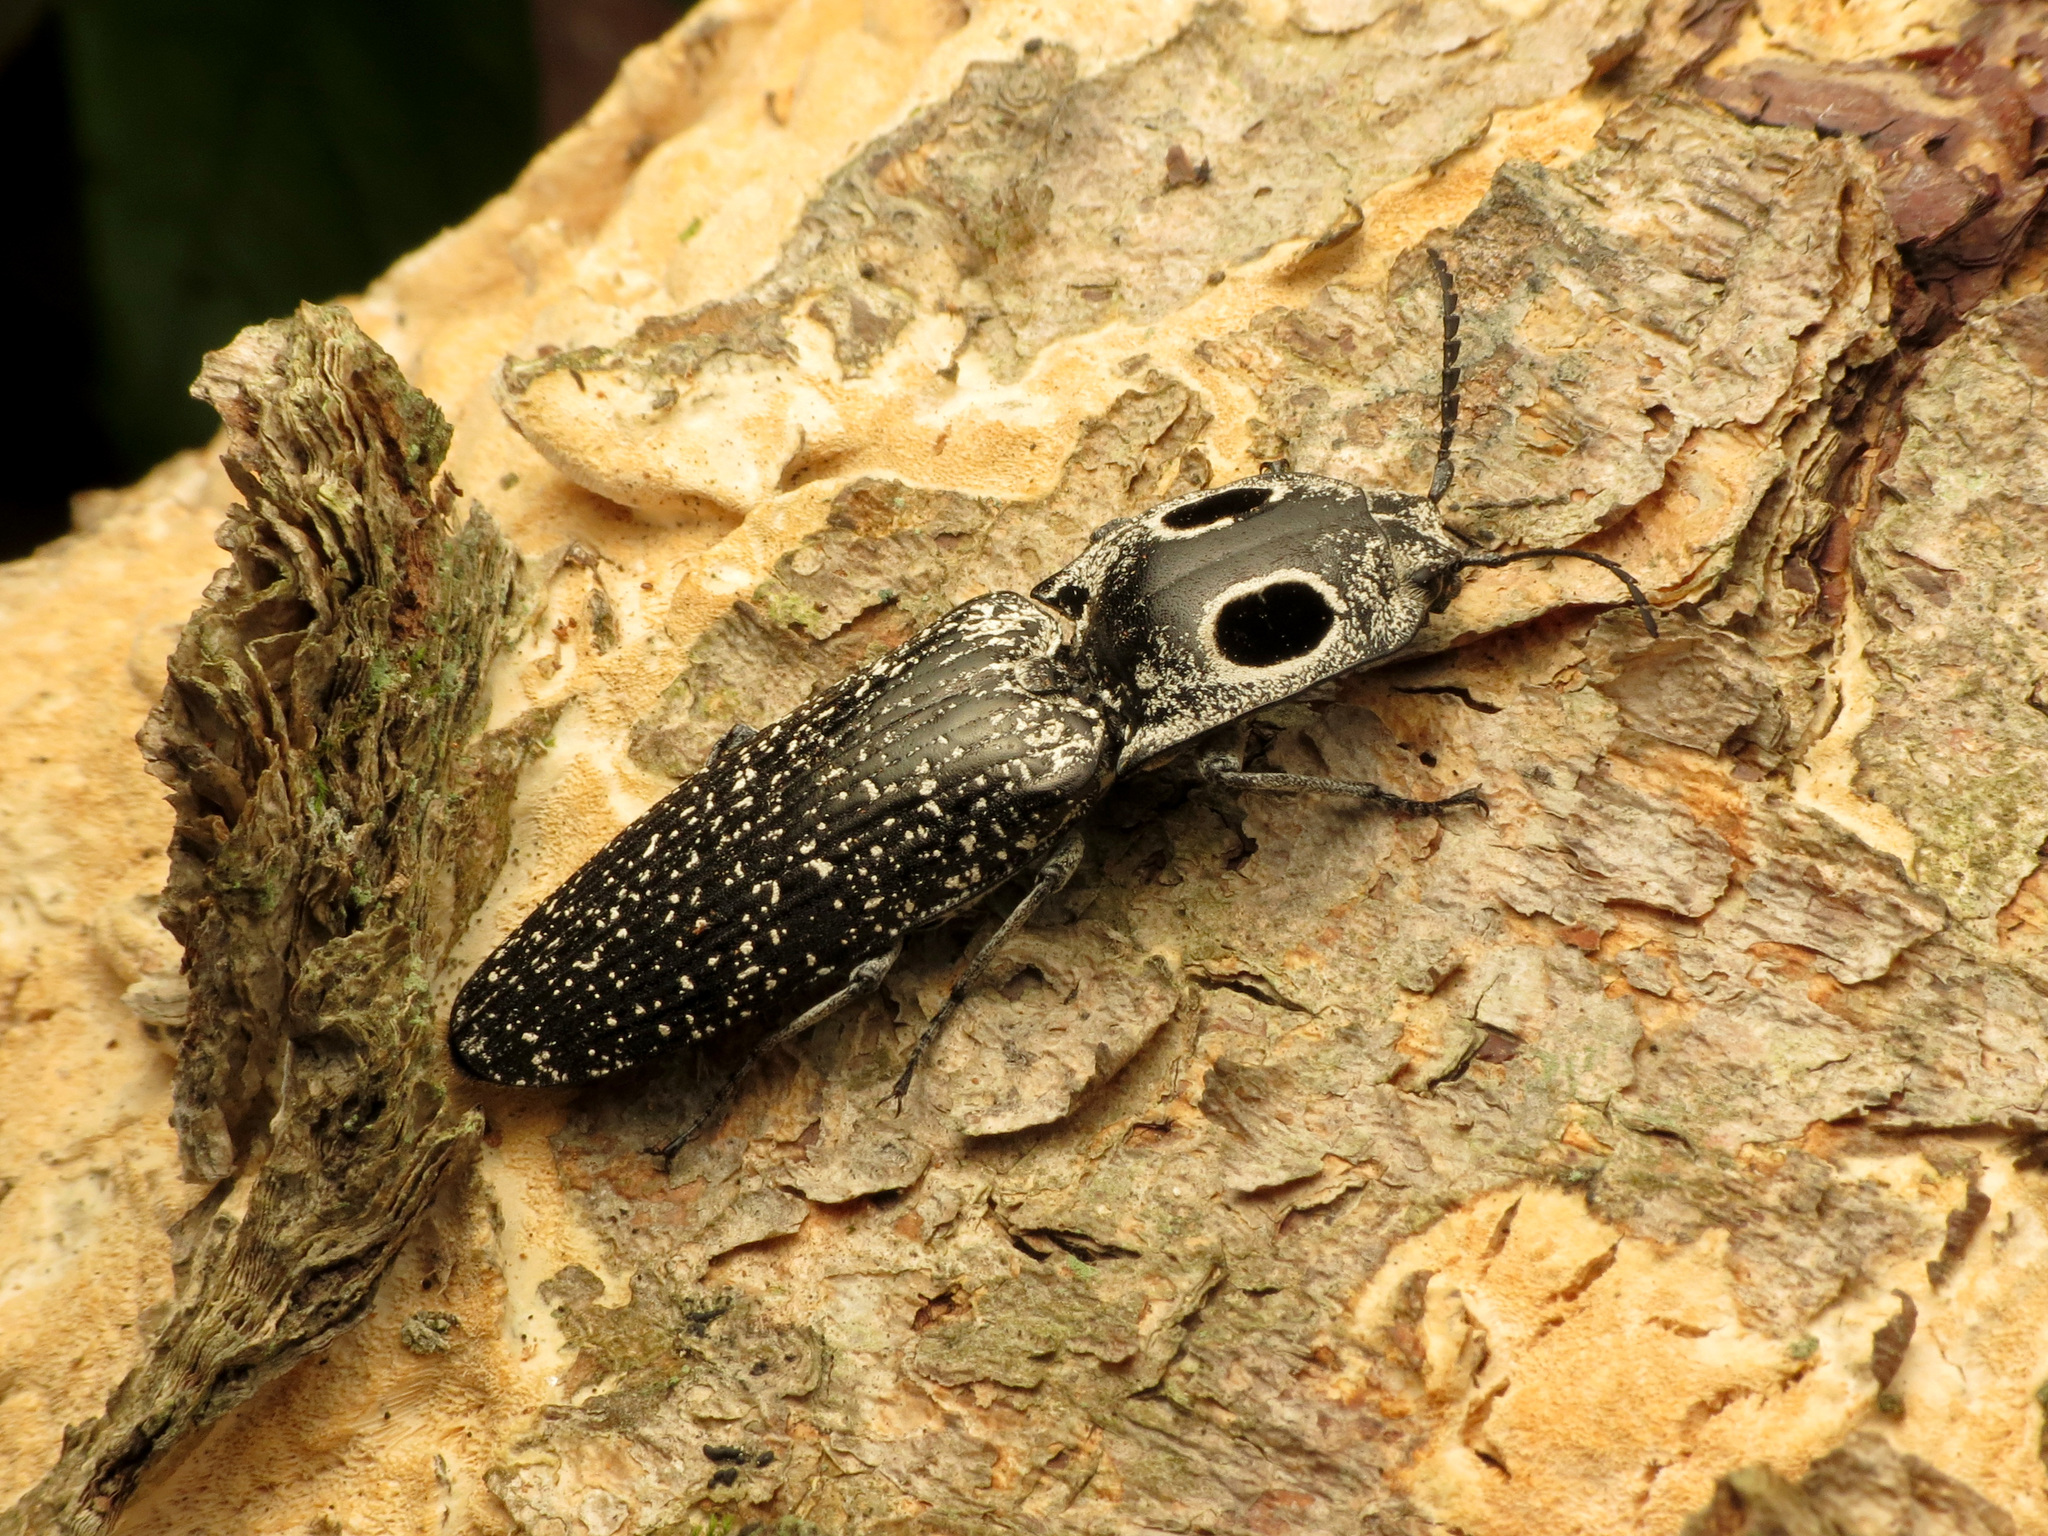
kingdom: Animalia
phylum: Arthropoda
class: Insecta
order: Coleoptera
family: Elateridae
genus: Alaus
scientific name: Alaus oculatus
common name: Eastern eyed click beetle
